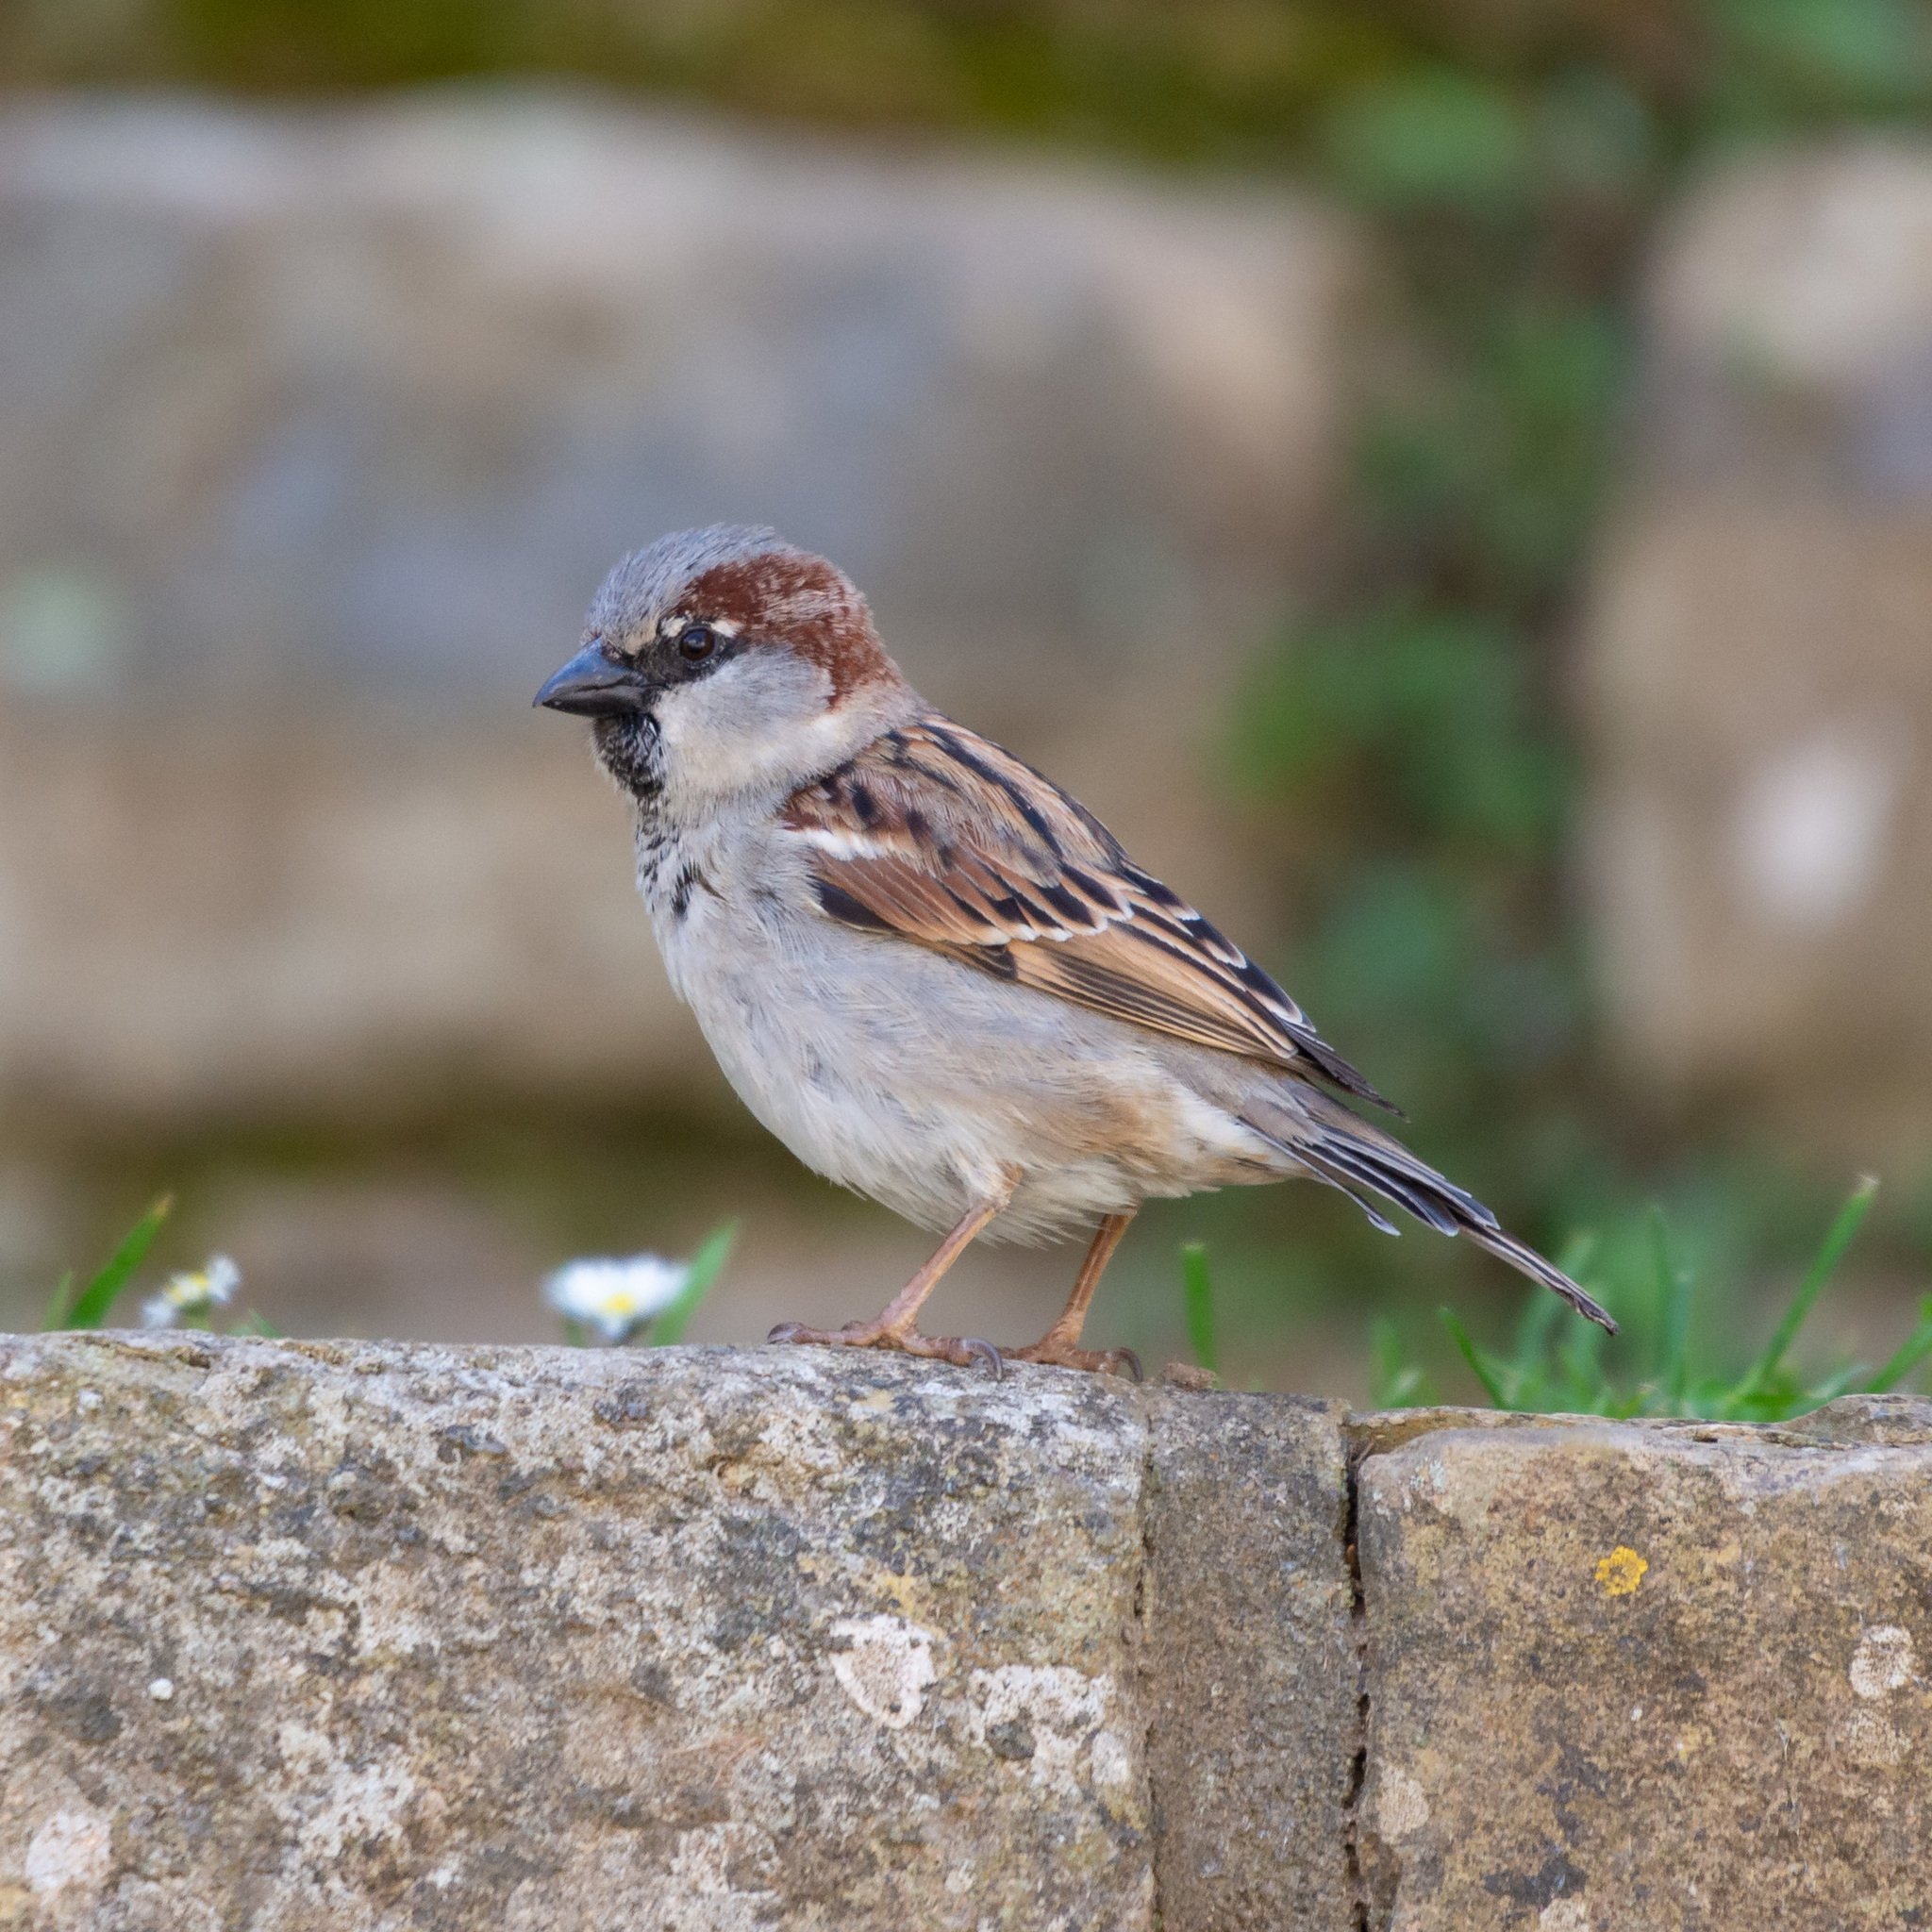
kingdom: Animalia
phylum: Chordata
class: Aves
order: Passeriformes
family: Passeridae
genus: Passer
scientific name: Passer domesticus
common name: House sparrow
